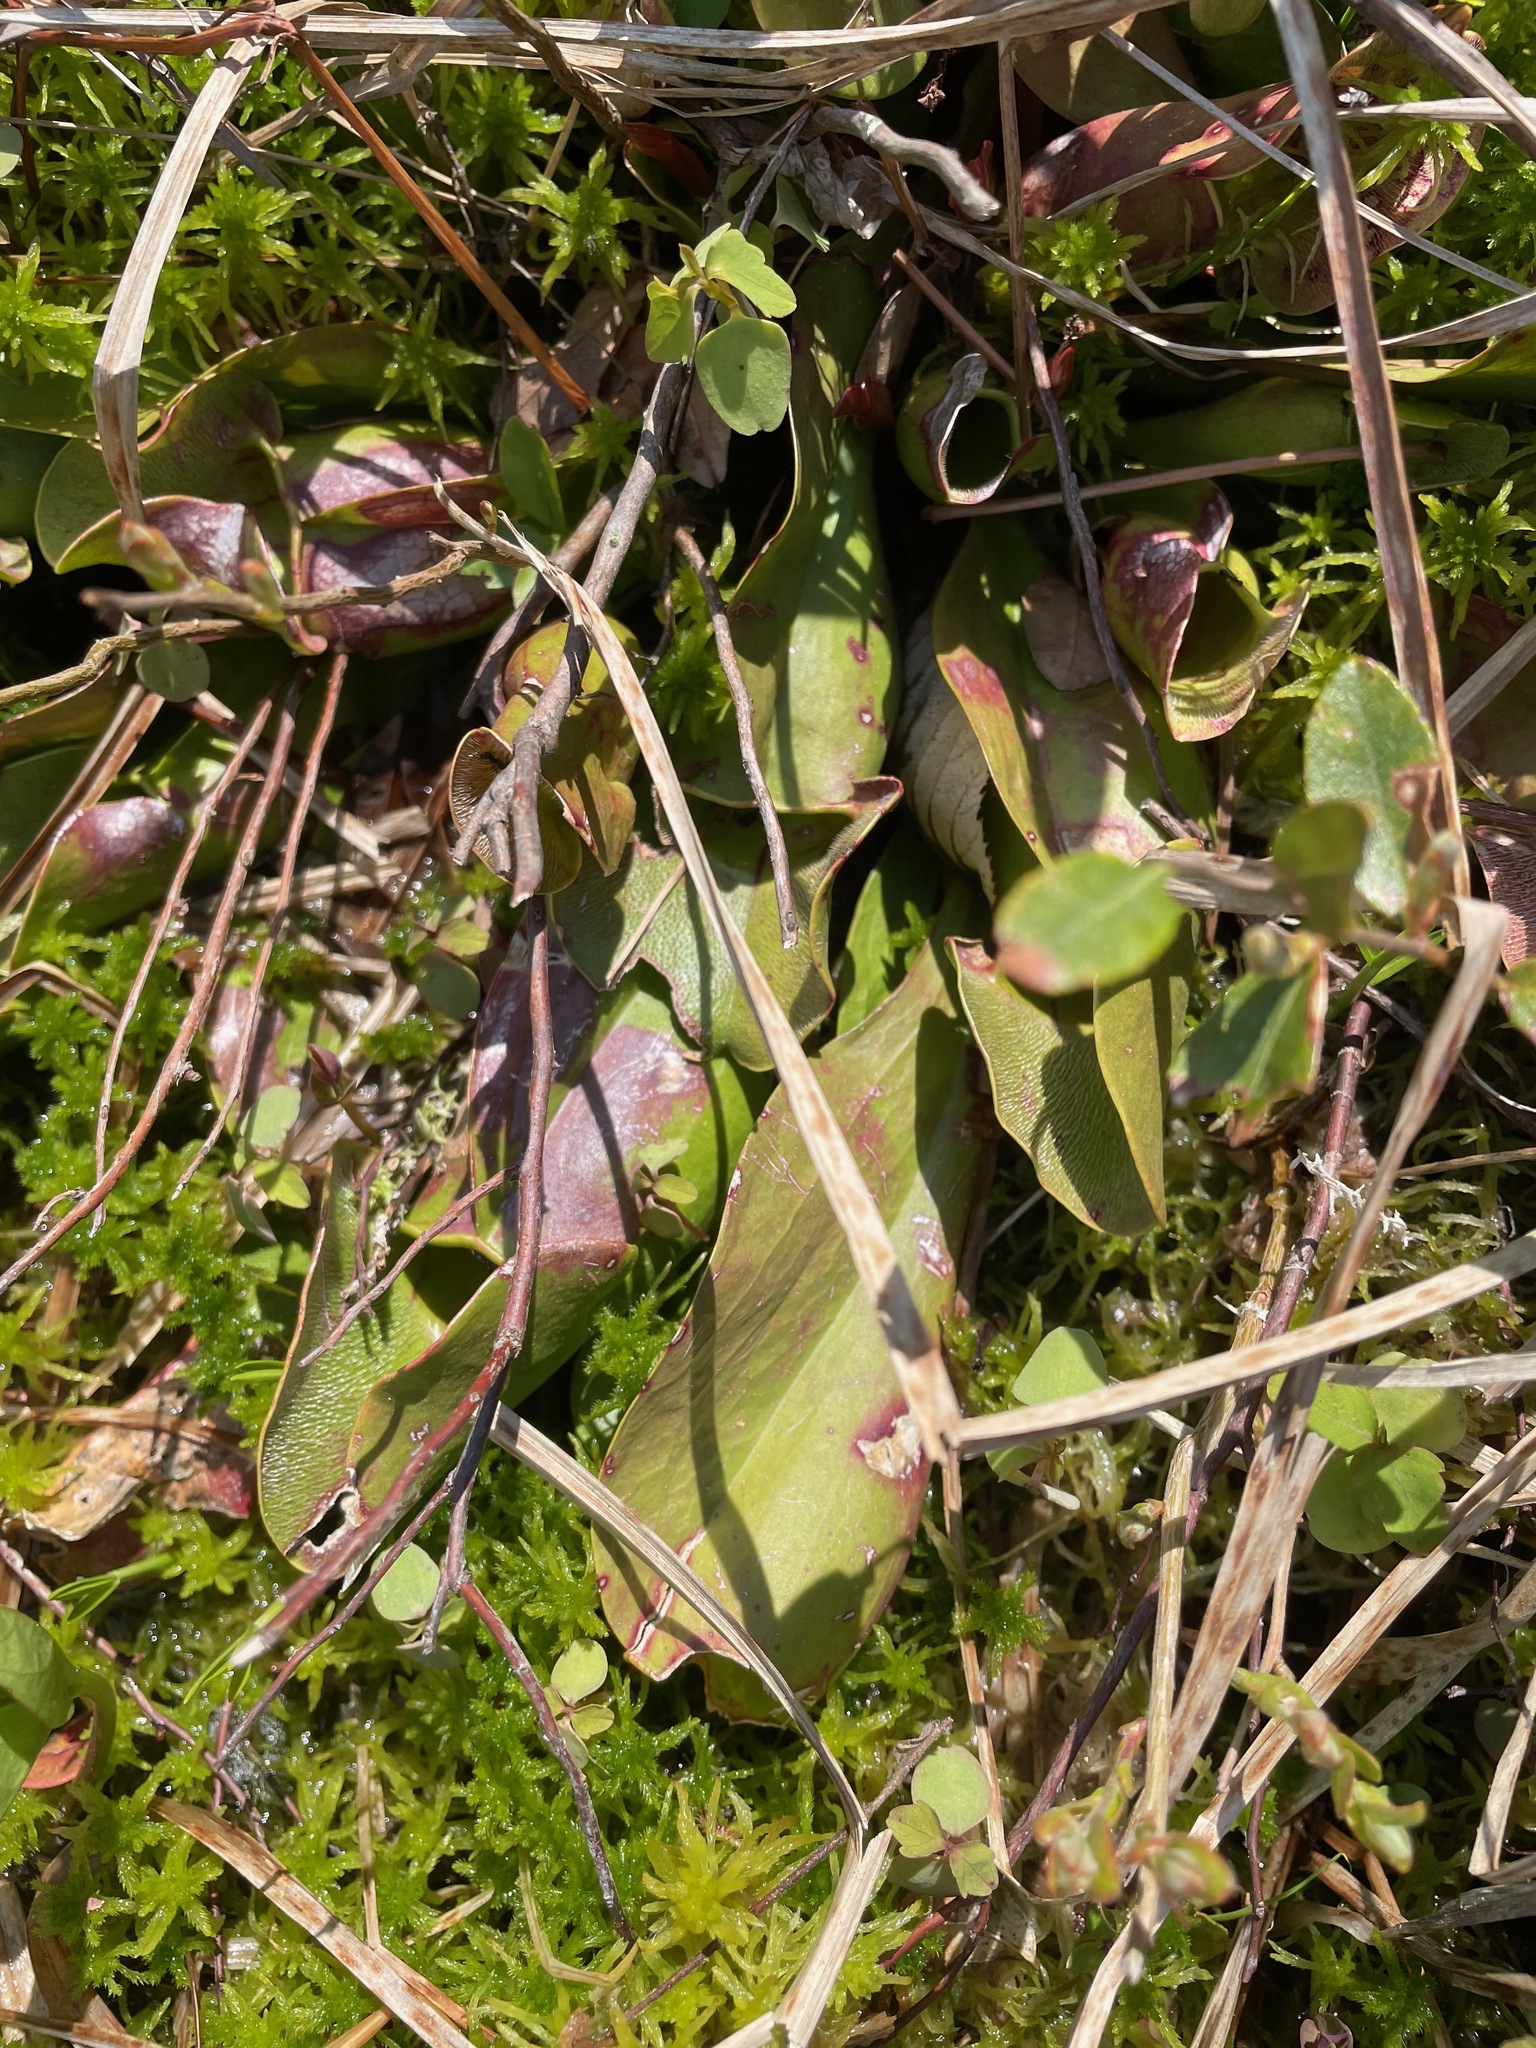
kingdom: Plantae
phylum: Tracheophyta
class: Magnoliopsida
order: Ericales
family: Sarraceniaceae
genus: Sarracenia
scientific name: Sarracenia purpurea
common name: Pitcherplant
